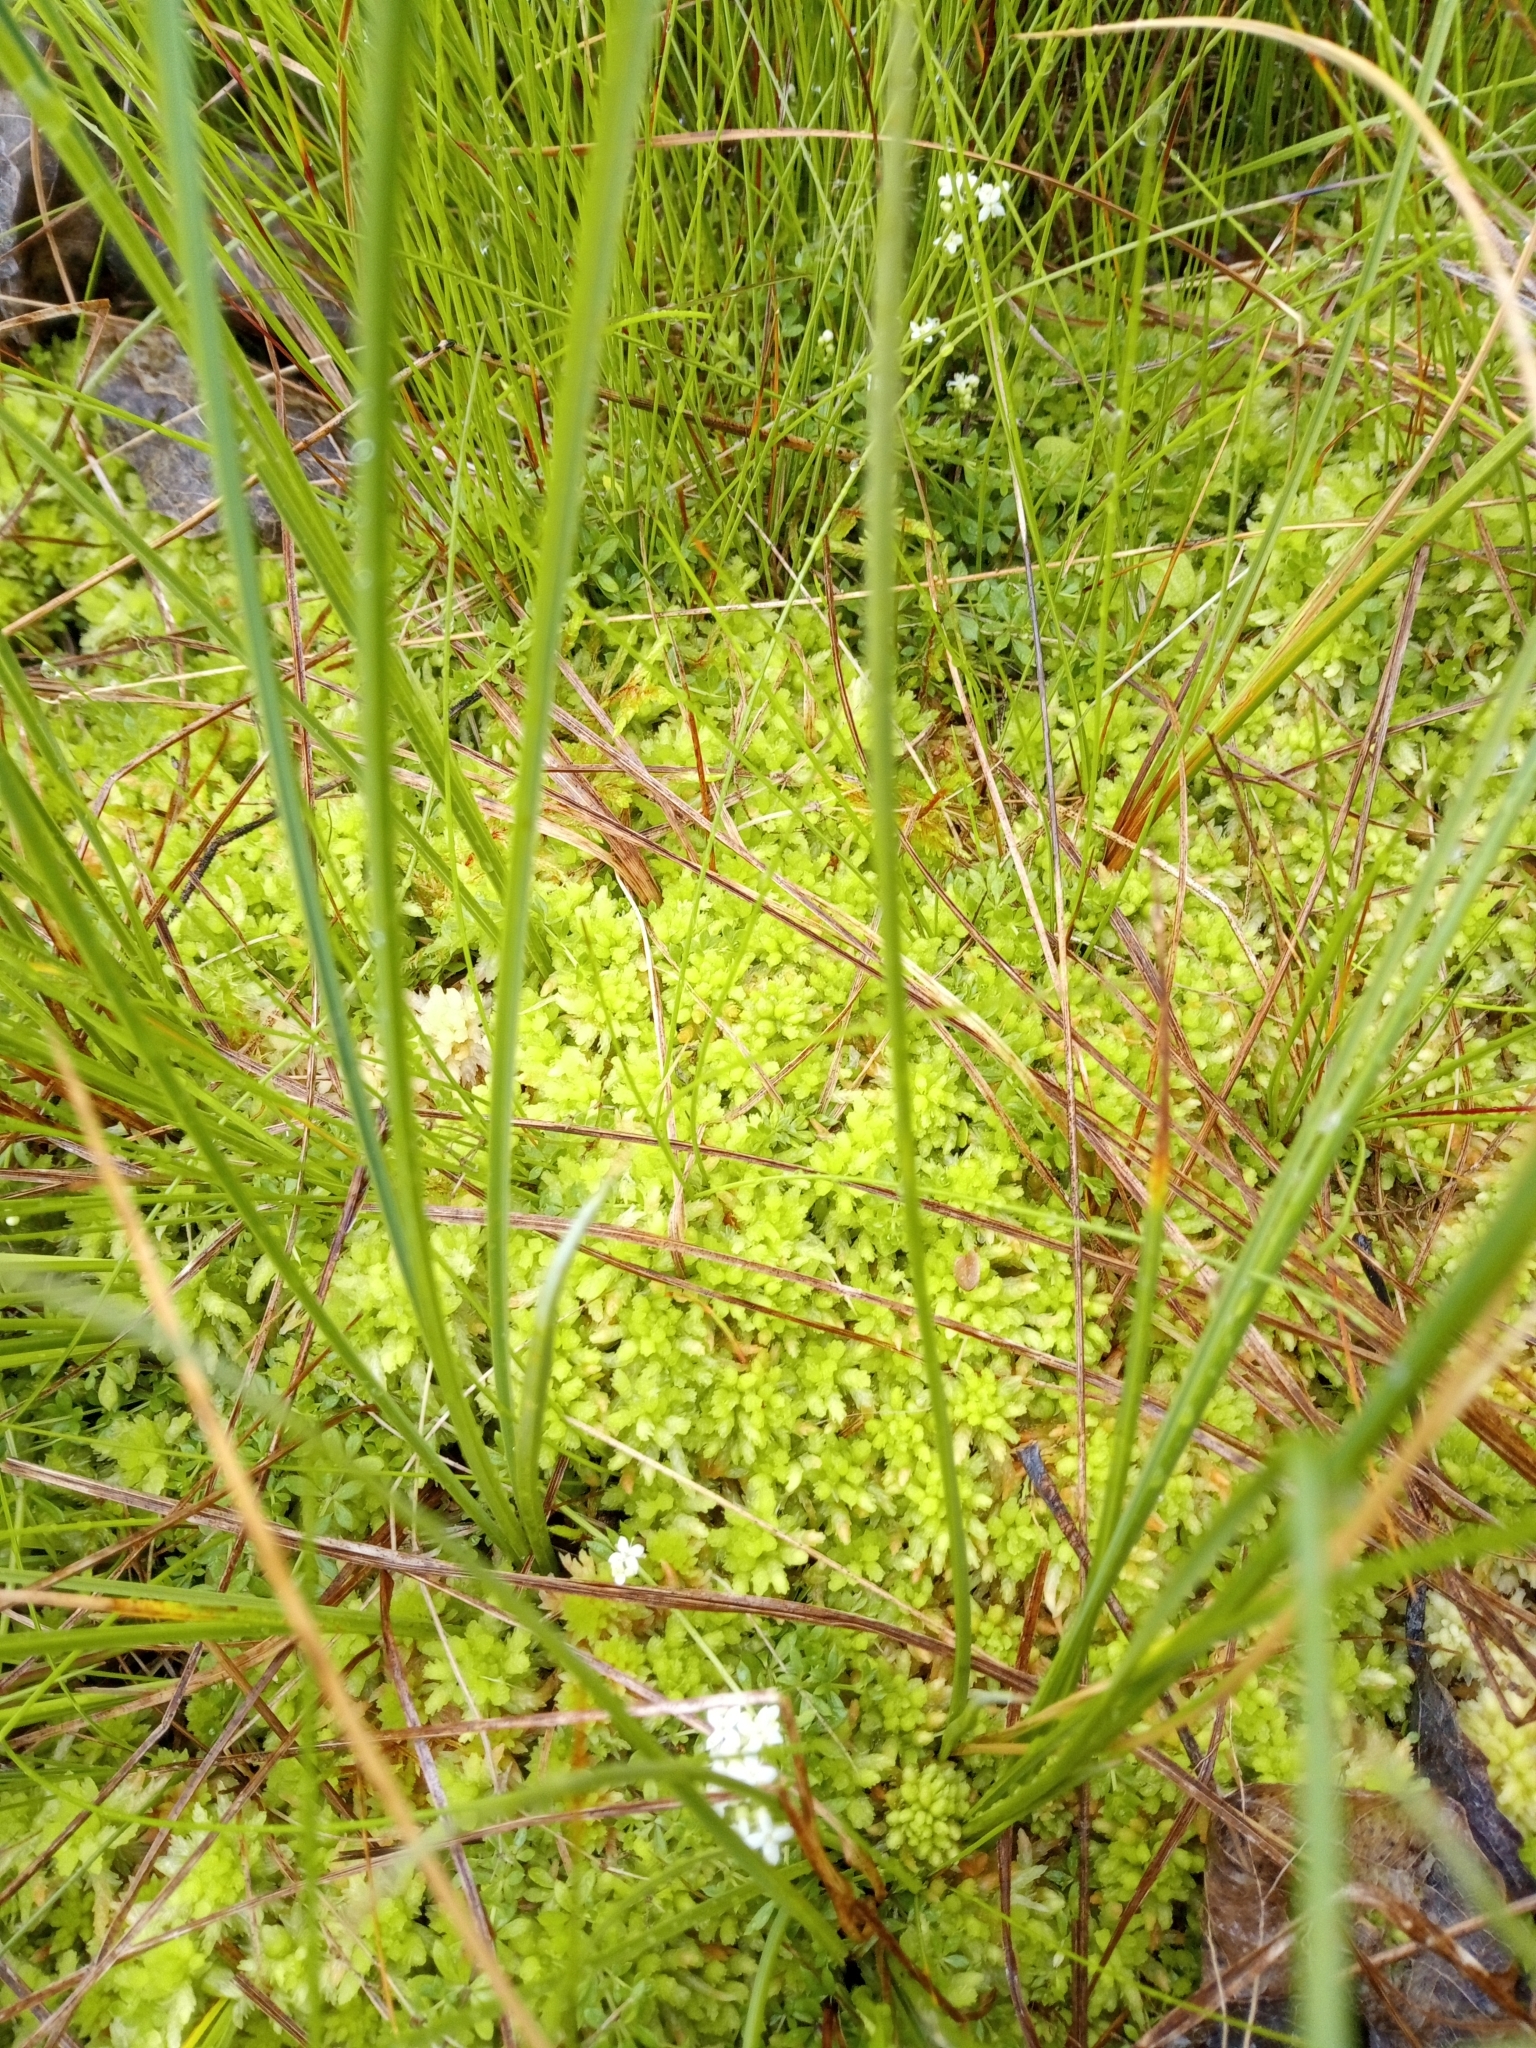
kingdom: Plantae
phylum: Bryophyta
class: Sphagnopsida
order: Sphagnales
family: Sphagnaceae
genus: Sphagnum
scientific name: Sphagnum palustre
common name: Blunt-leaved bog-moss
